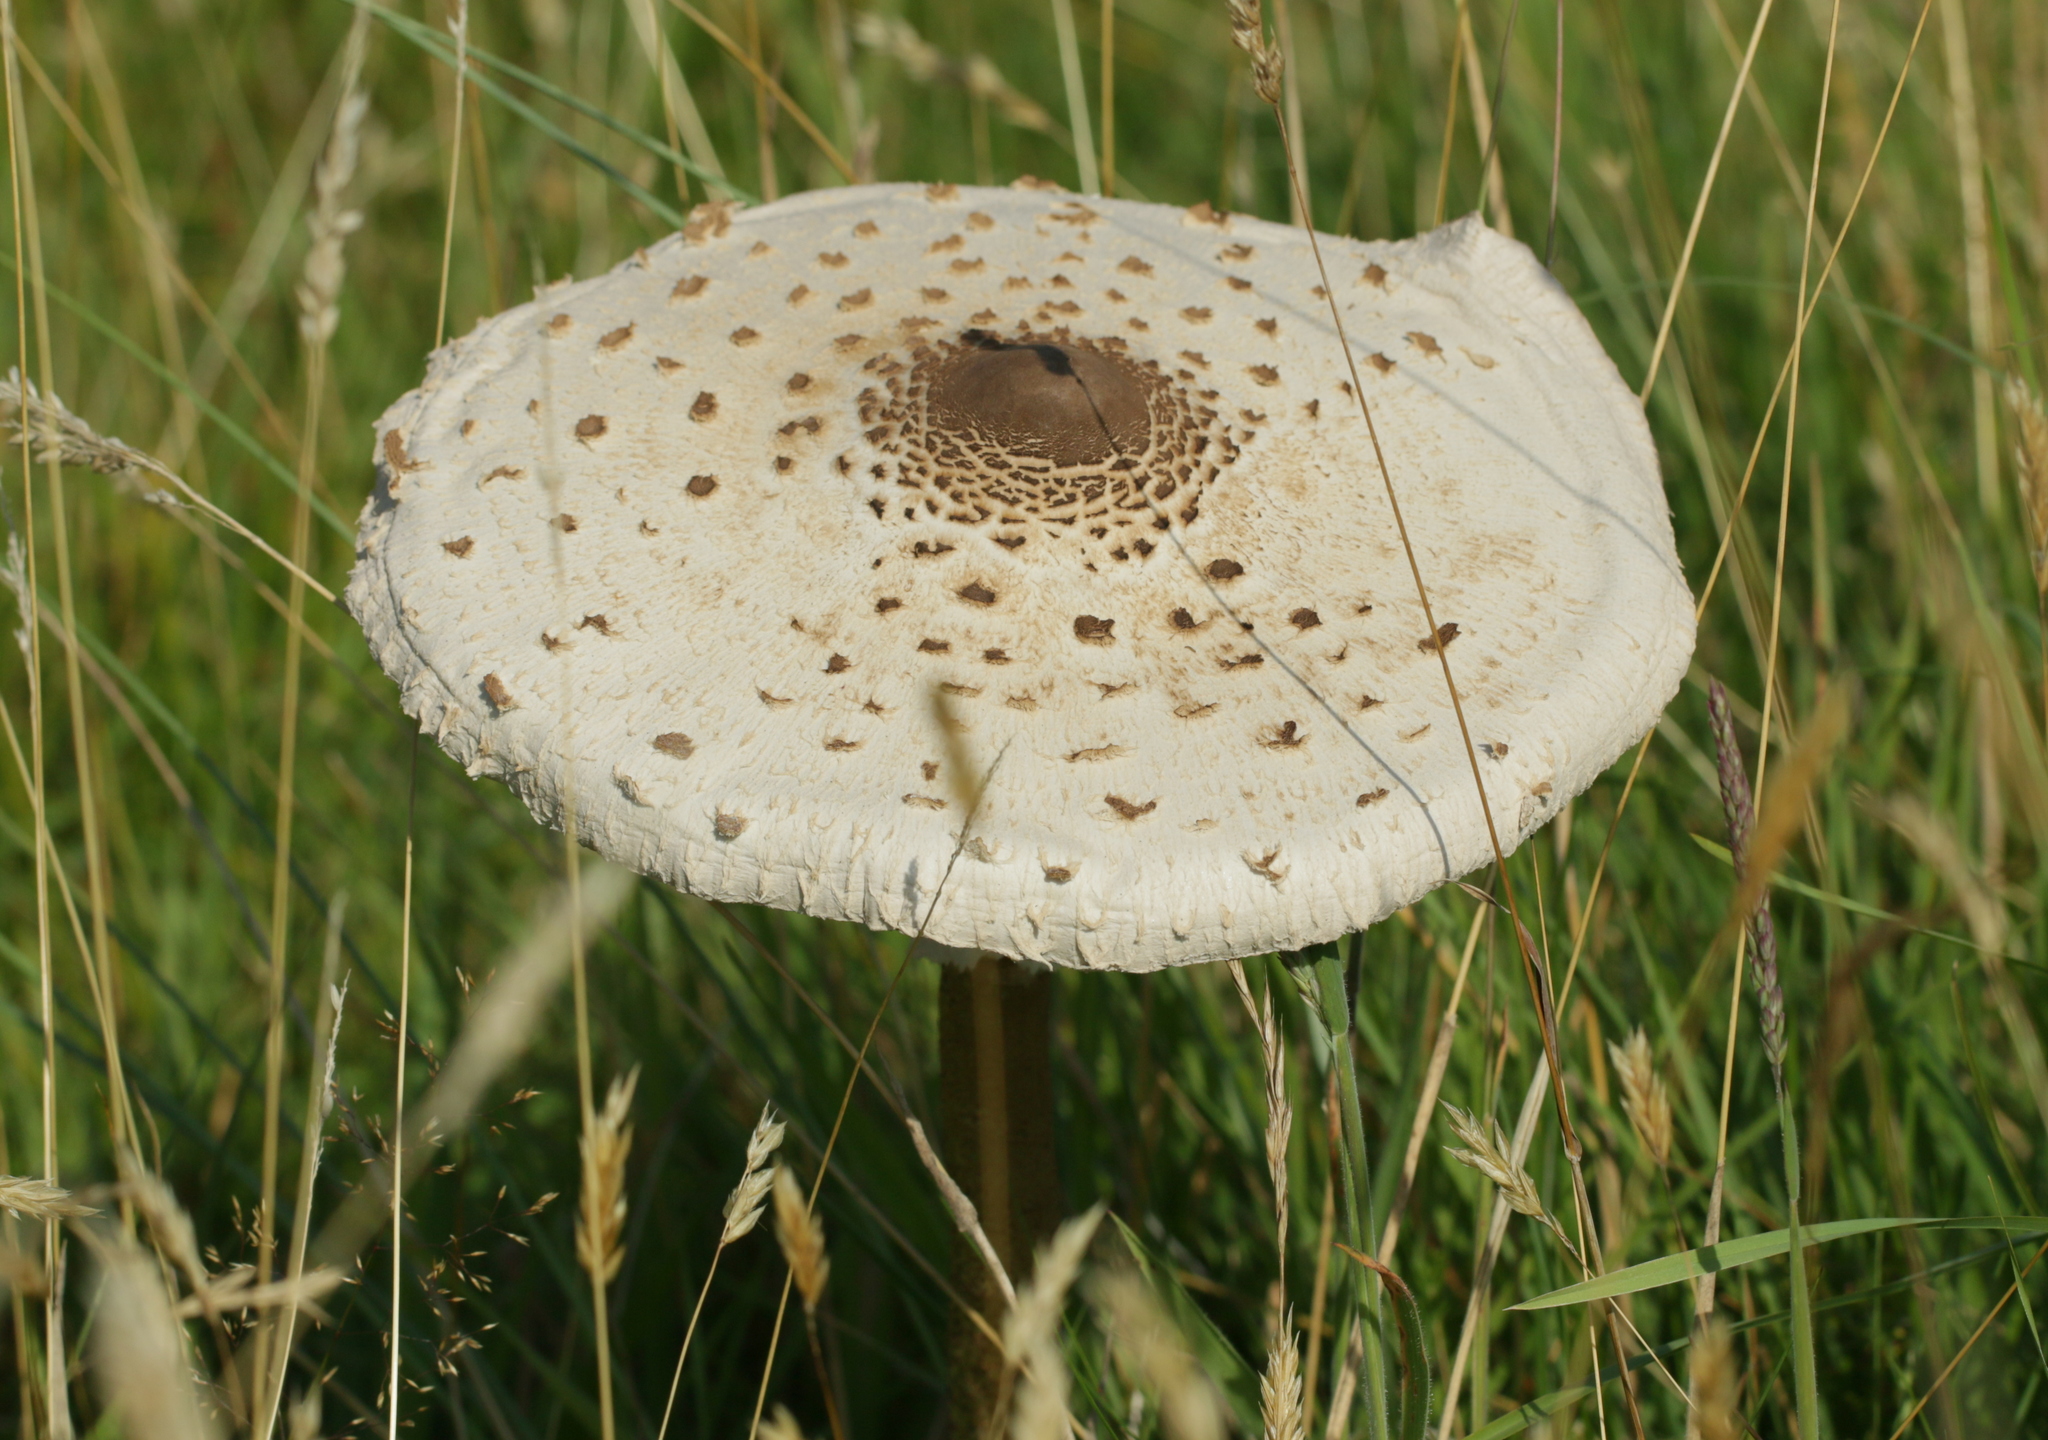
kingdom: Fungi
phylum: Basidiomycota
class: Agaricomycetes
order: Agaricales
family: Agaricaceae
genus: Macrolepiota
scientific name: Macrolepiota procera
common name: Parasol
